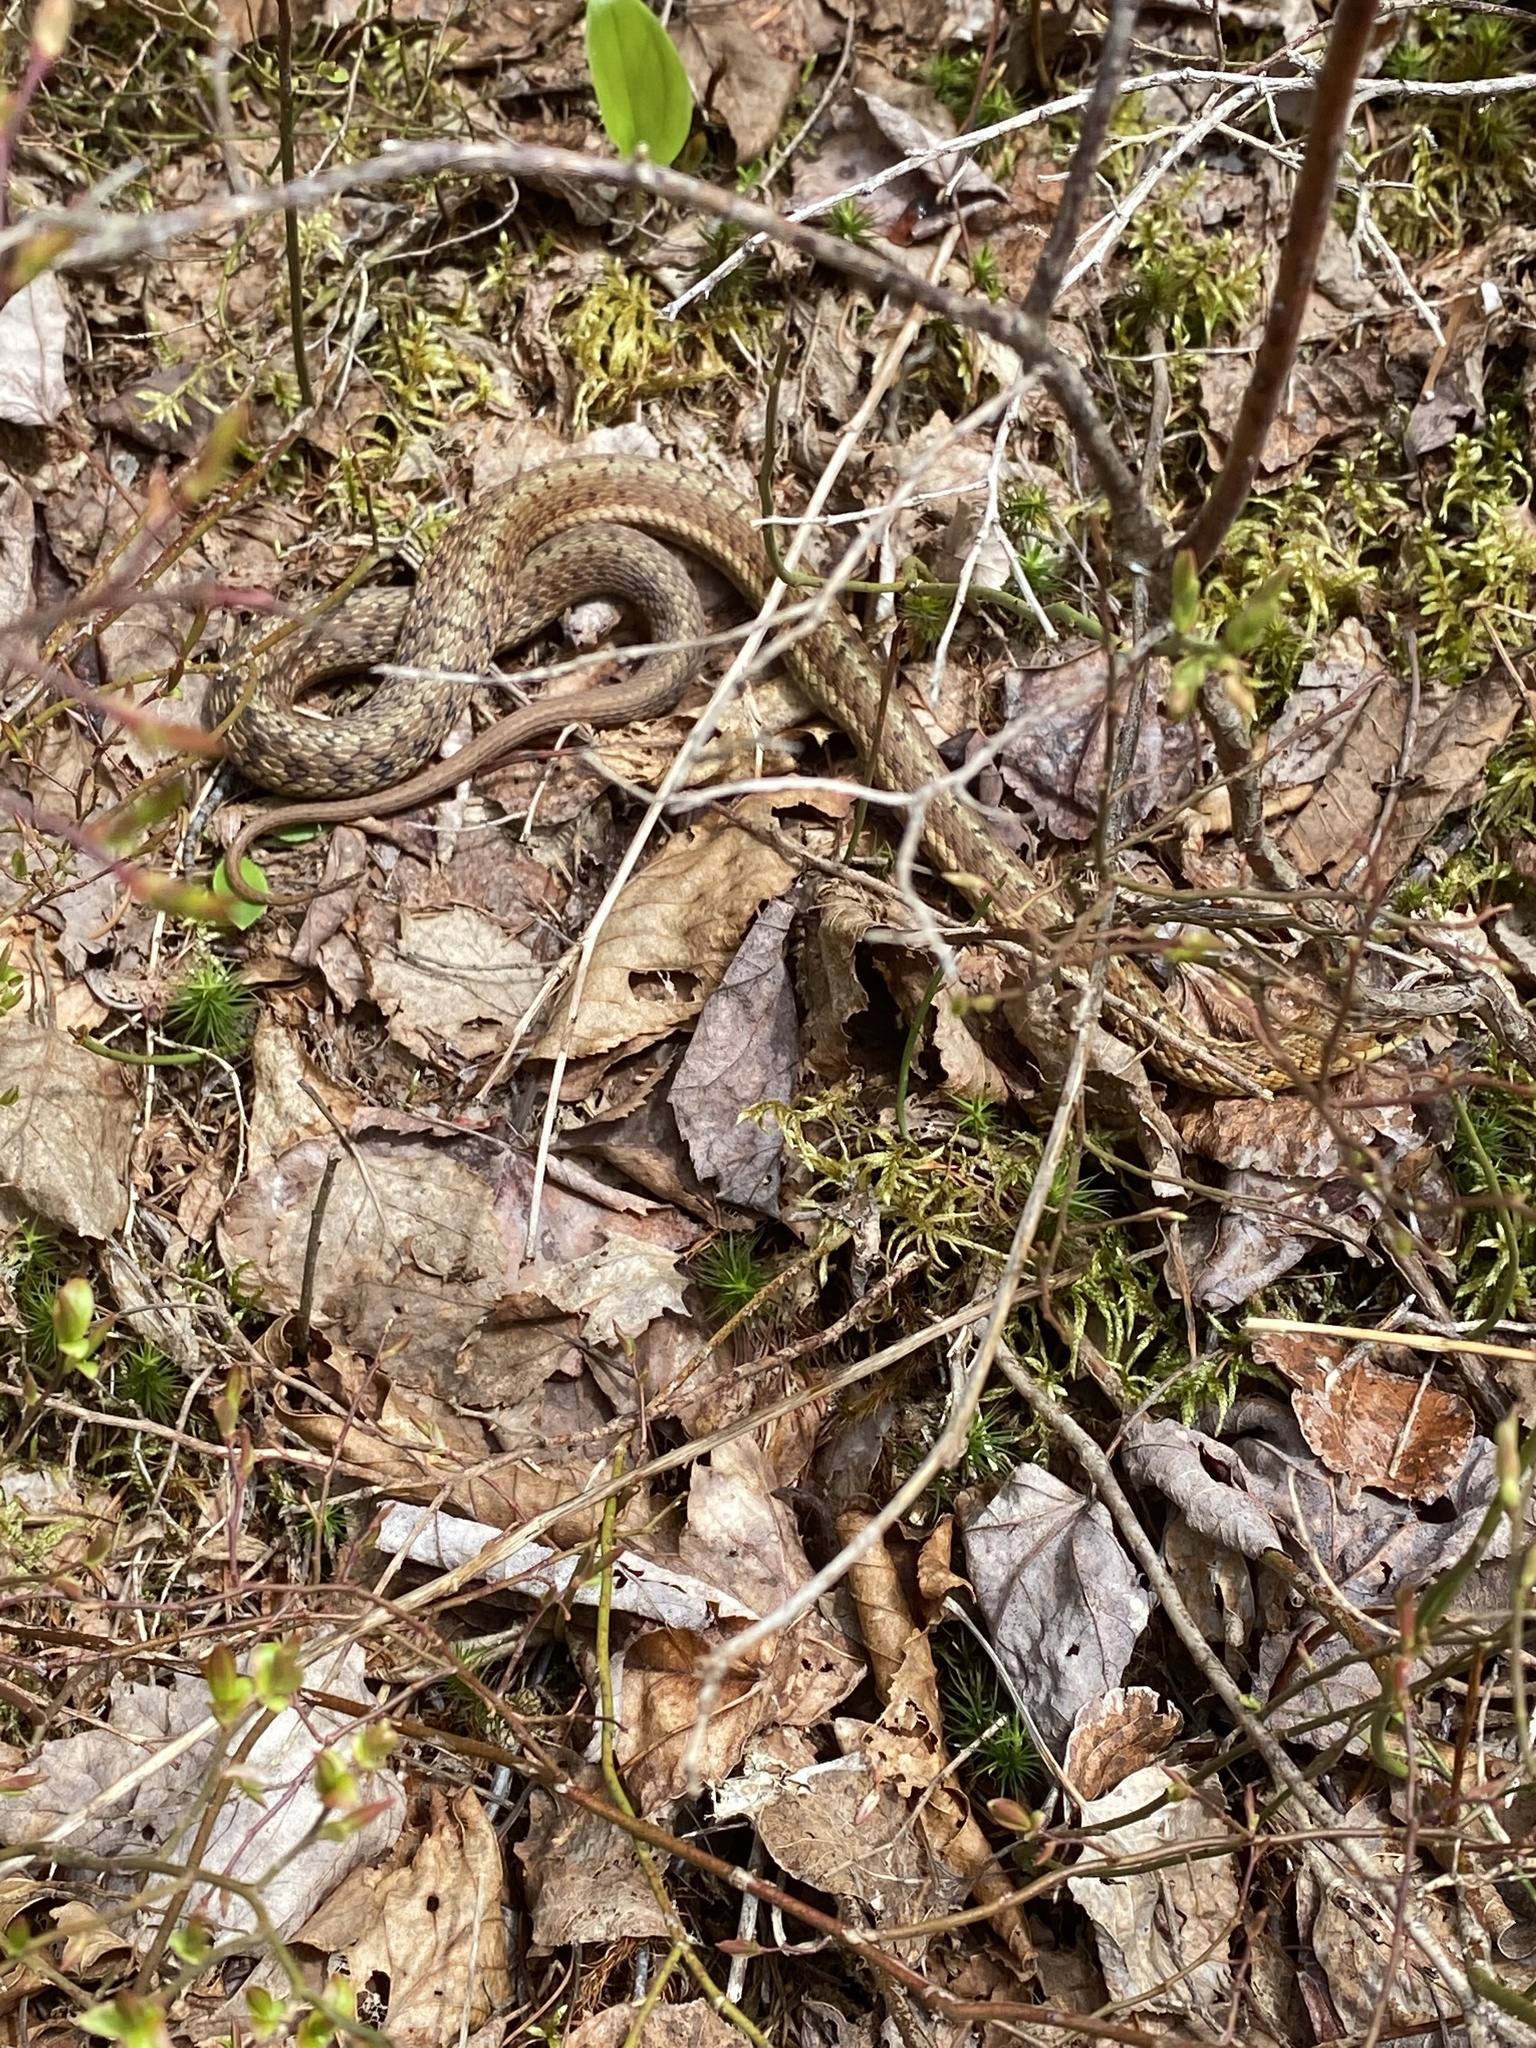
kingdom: Animalia
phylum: Chordata
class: Squamata
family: Colubridae
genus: Thamnophis
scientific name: Thamnophis sirtalis
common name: Common garter snake
